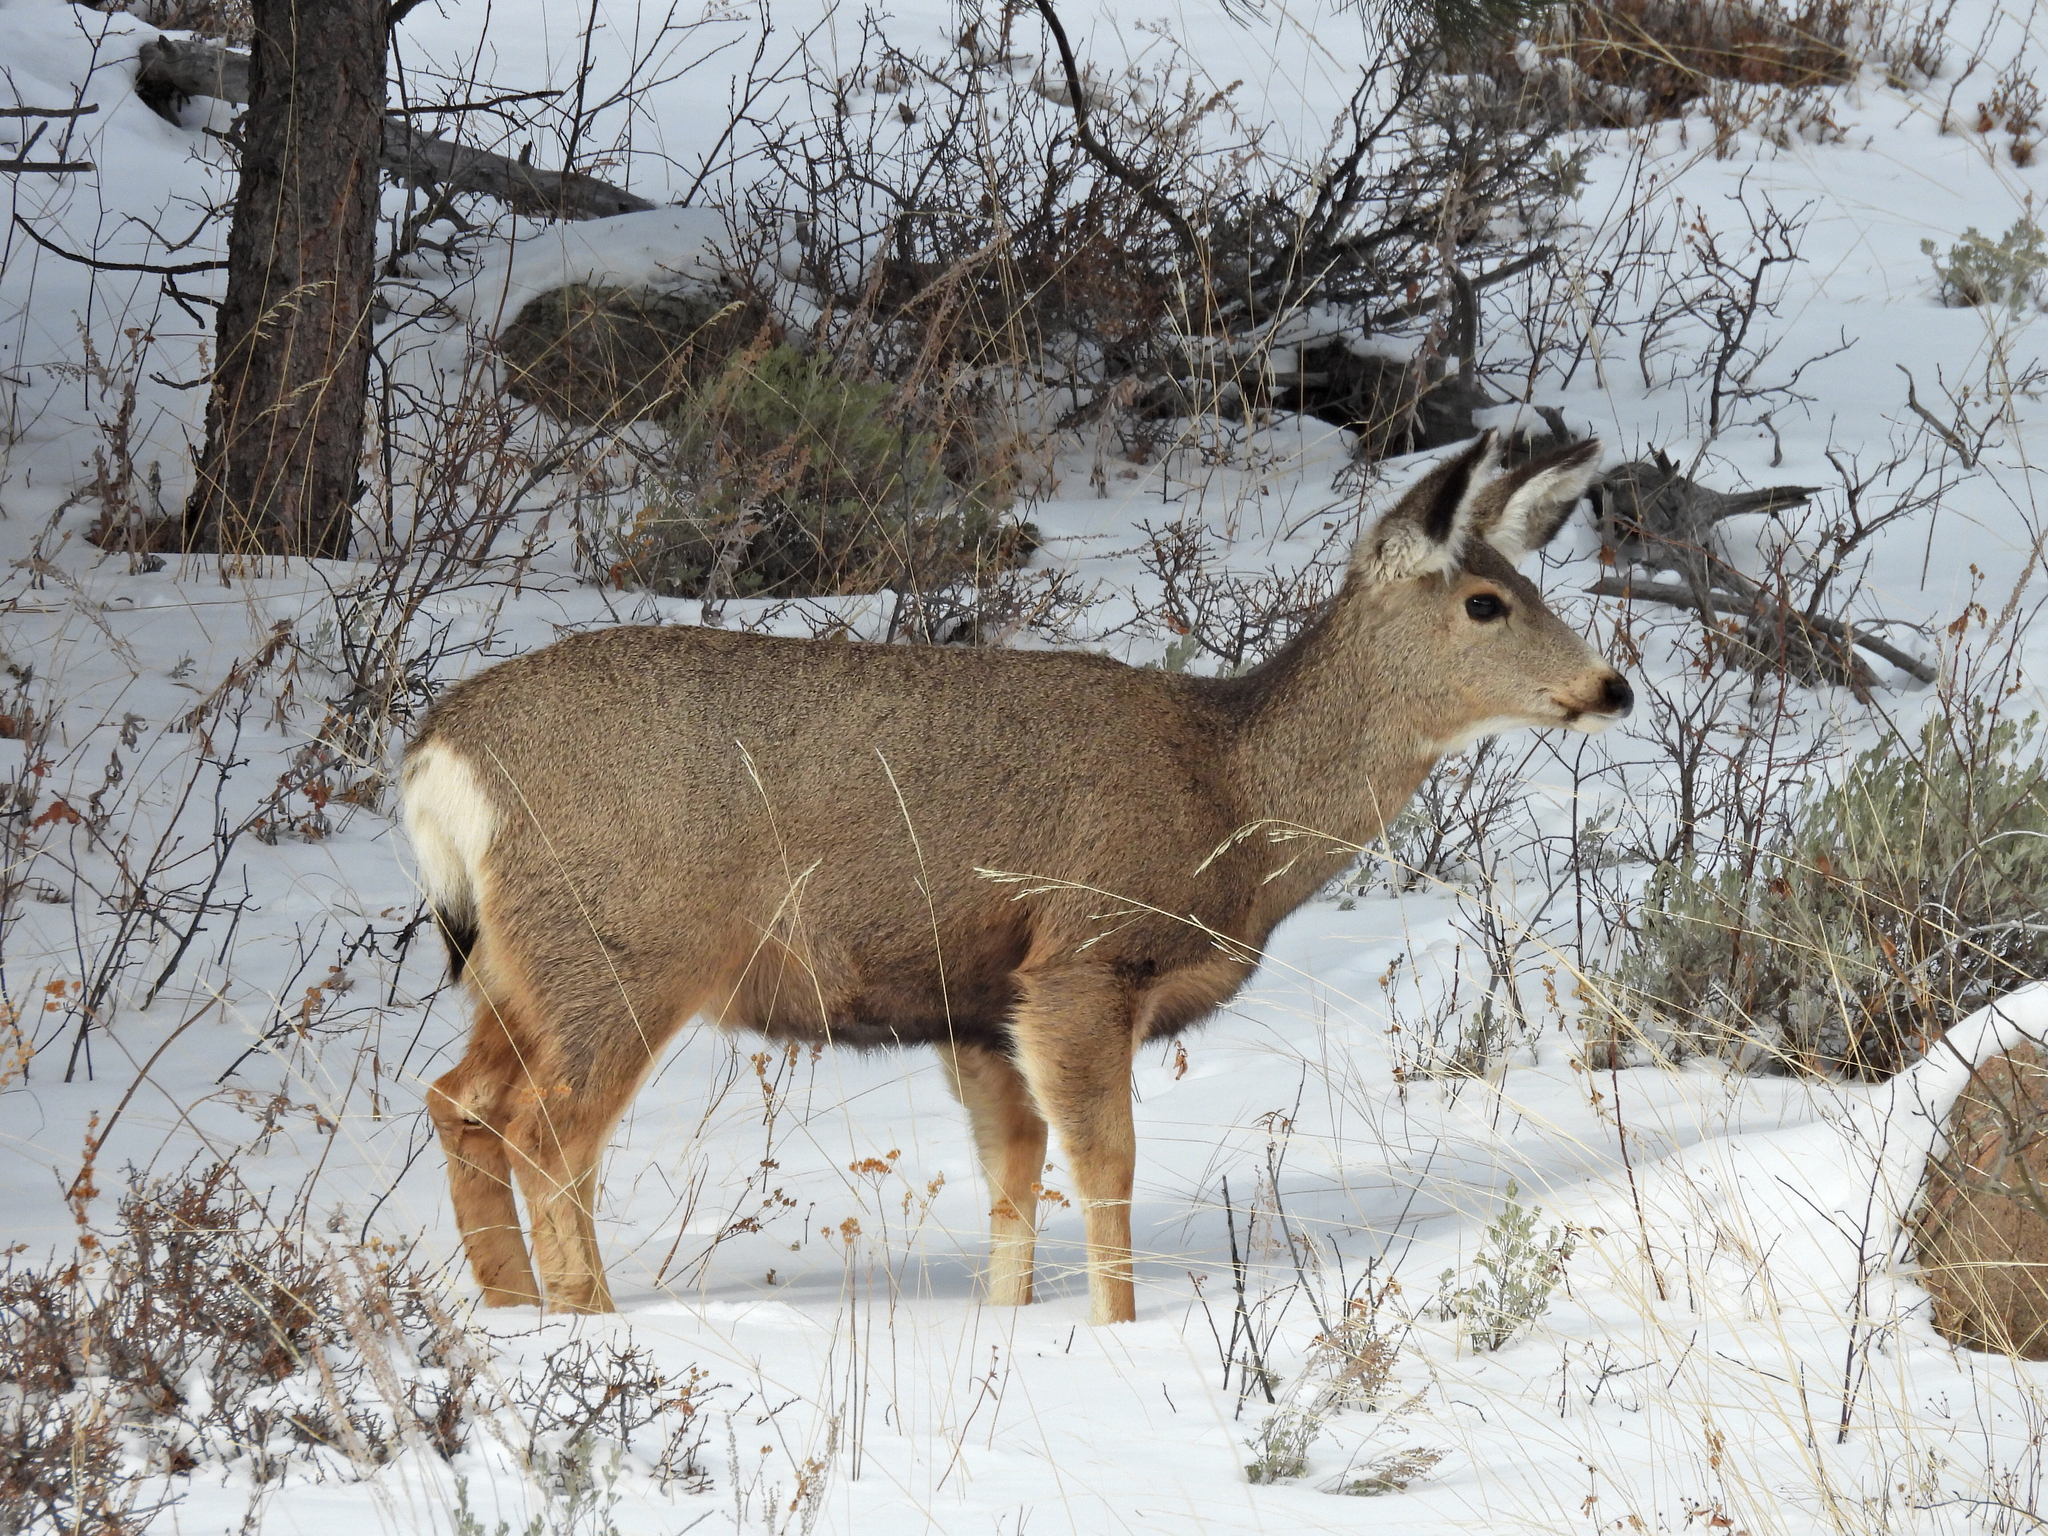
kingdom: Animalia
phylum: Chordata
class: Mammalia
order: Artiodactyla
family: Cervidae
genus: Odocoileus
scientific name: Odocoileus hemionus
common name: Mule deer
